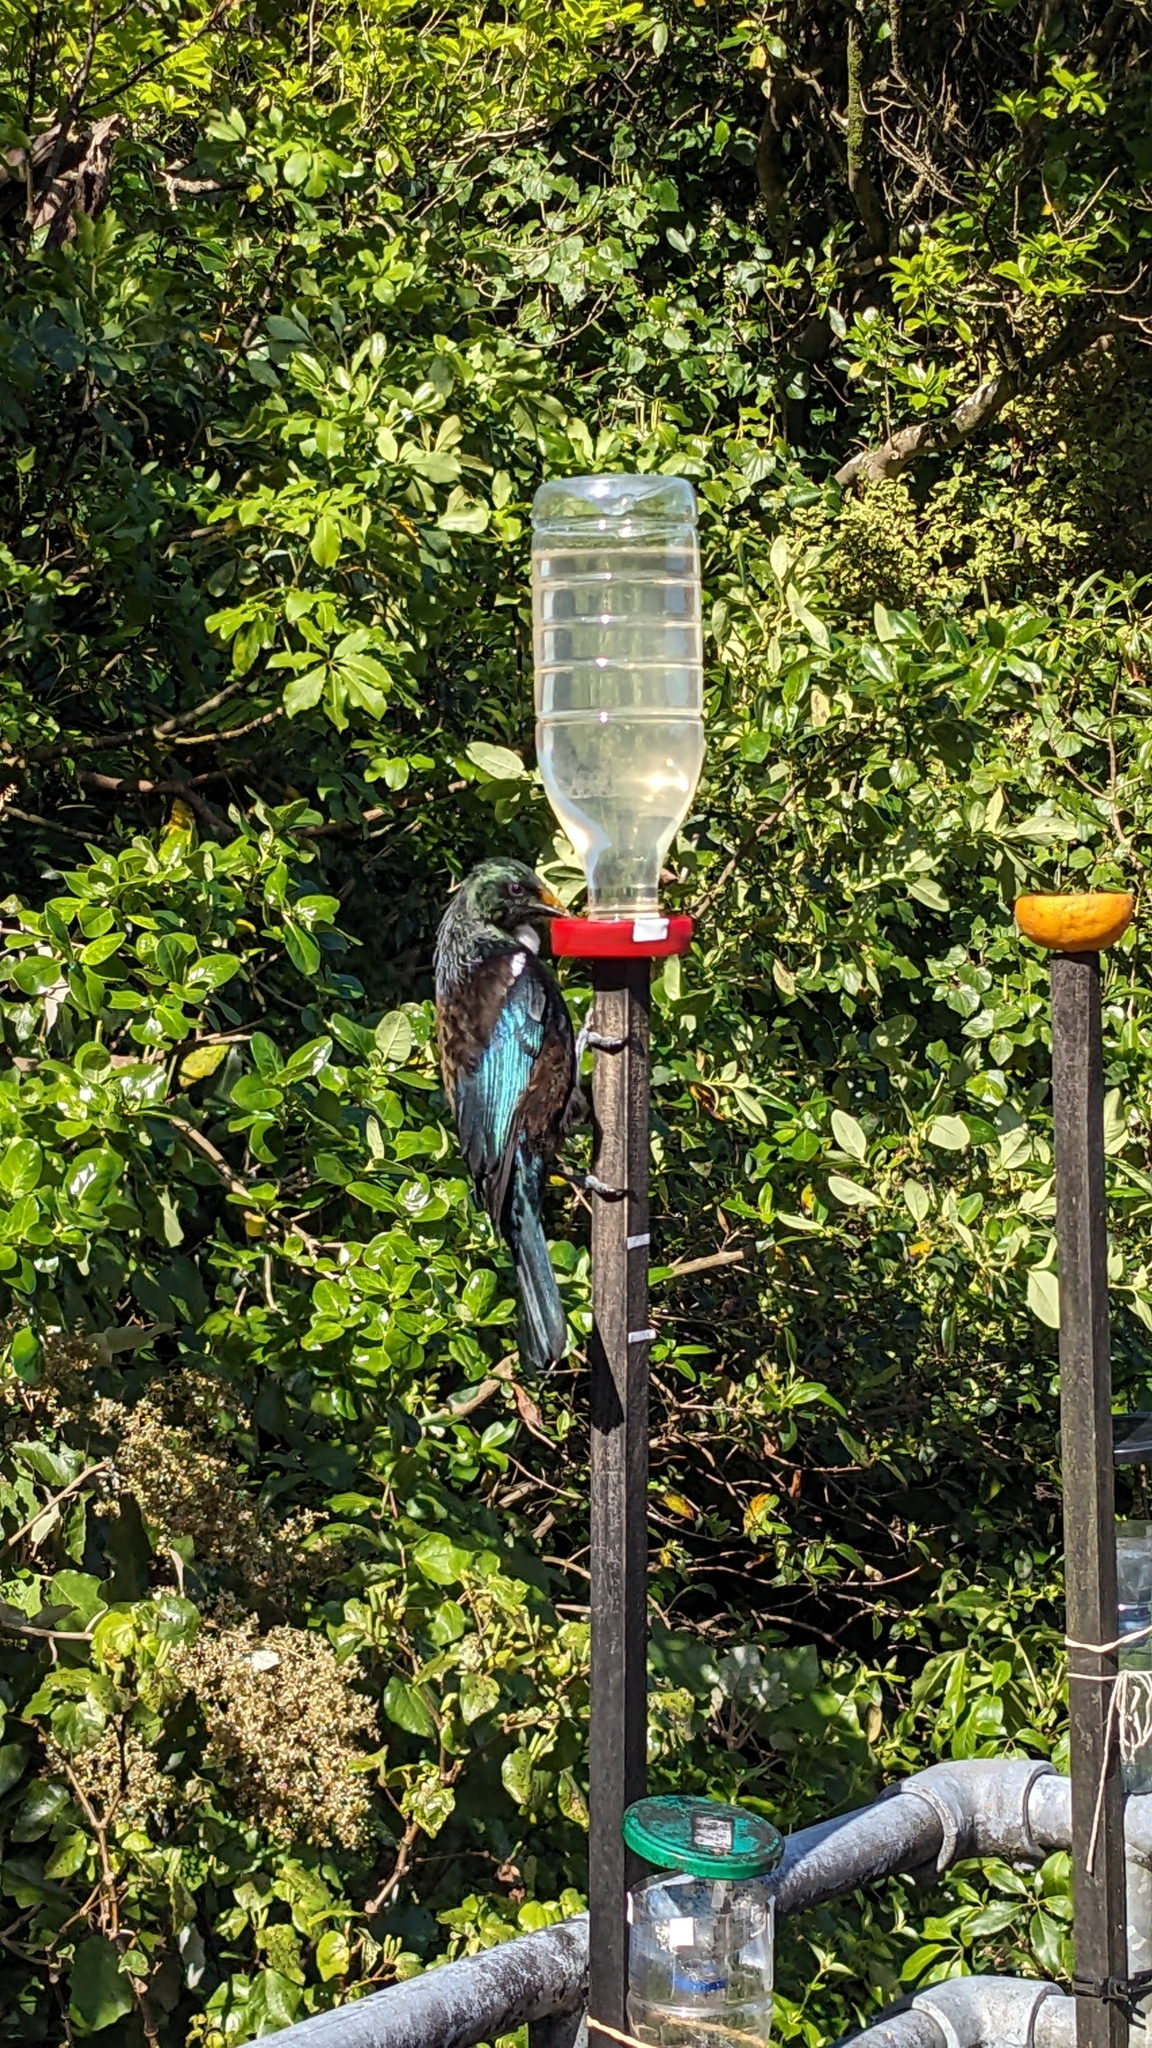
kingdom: Animalia
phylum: Chordata
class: Aves
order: Passeriformes
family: Meliphagidae
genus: Prosthemadera
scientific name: Prosthemadera novaeseelandiae
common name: Tui
